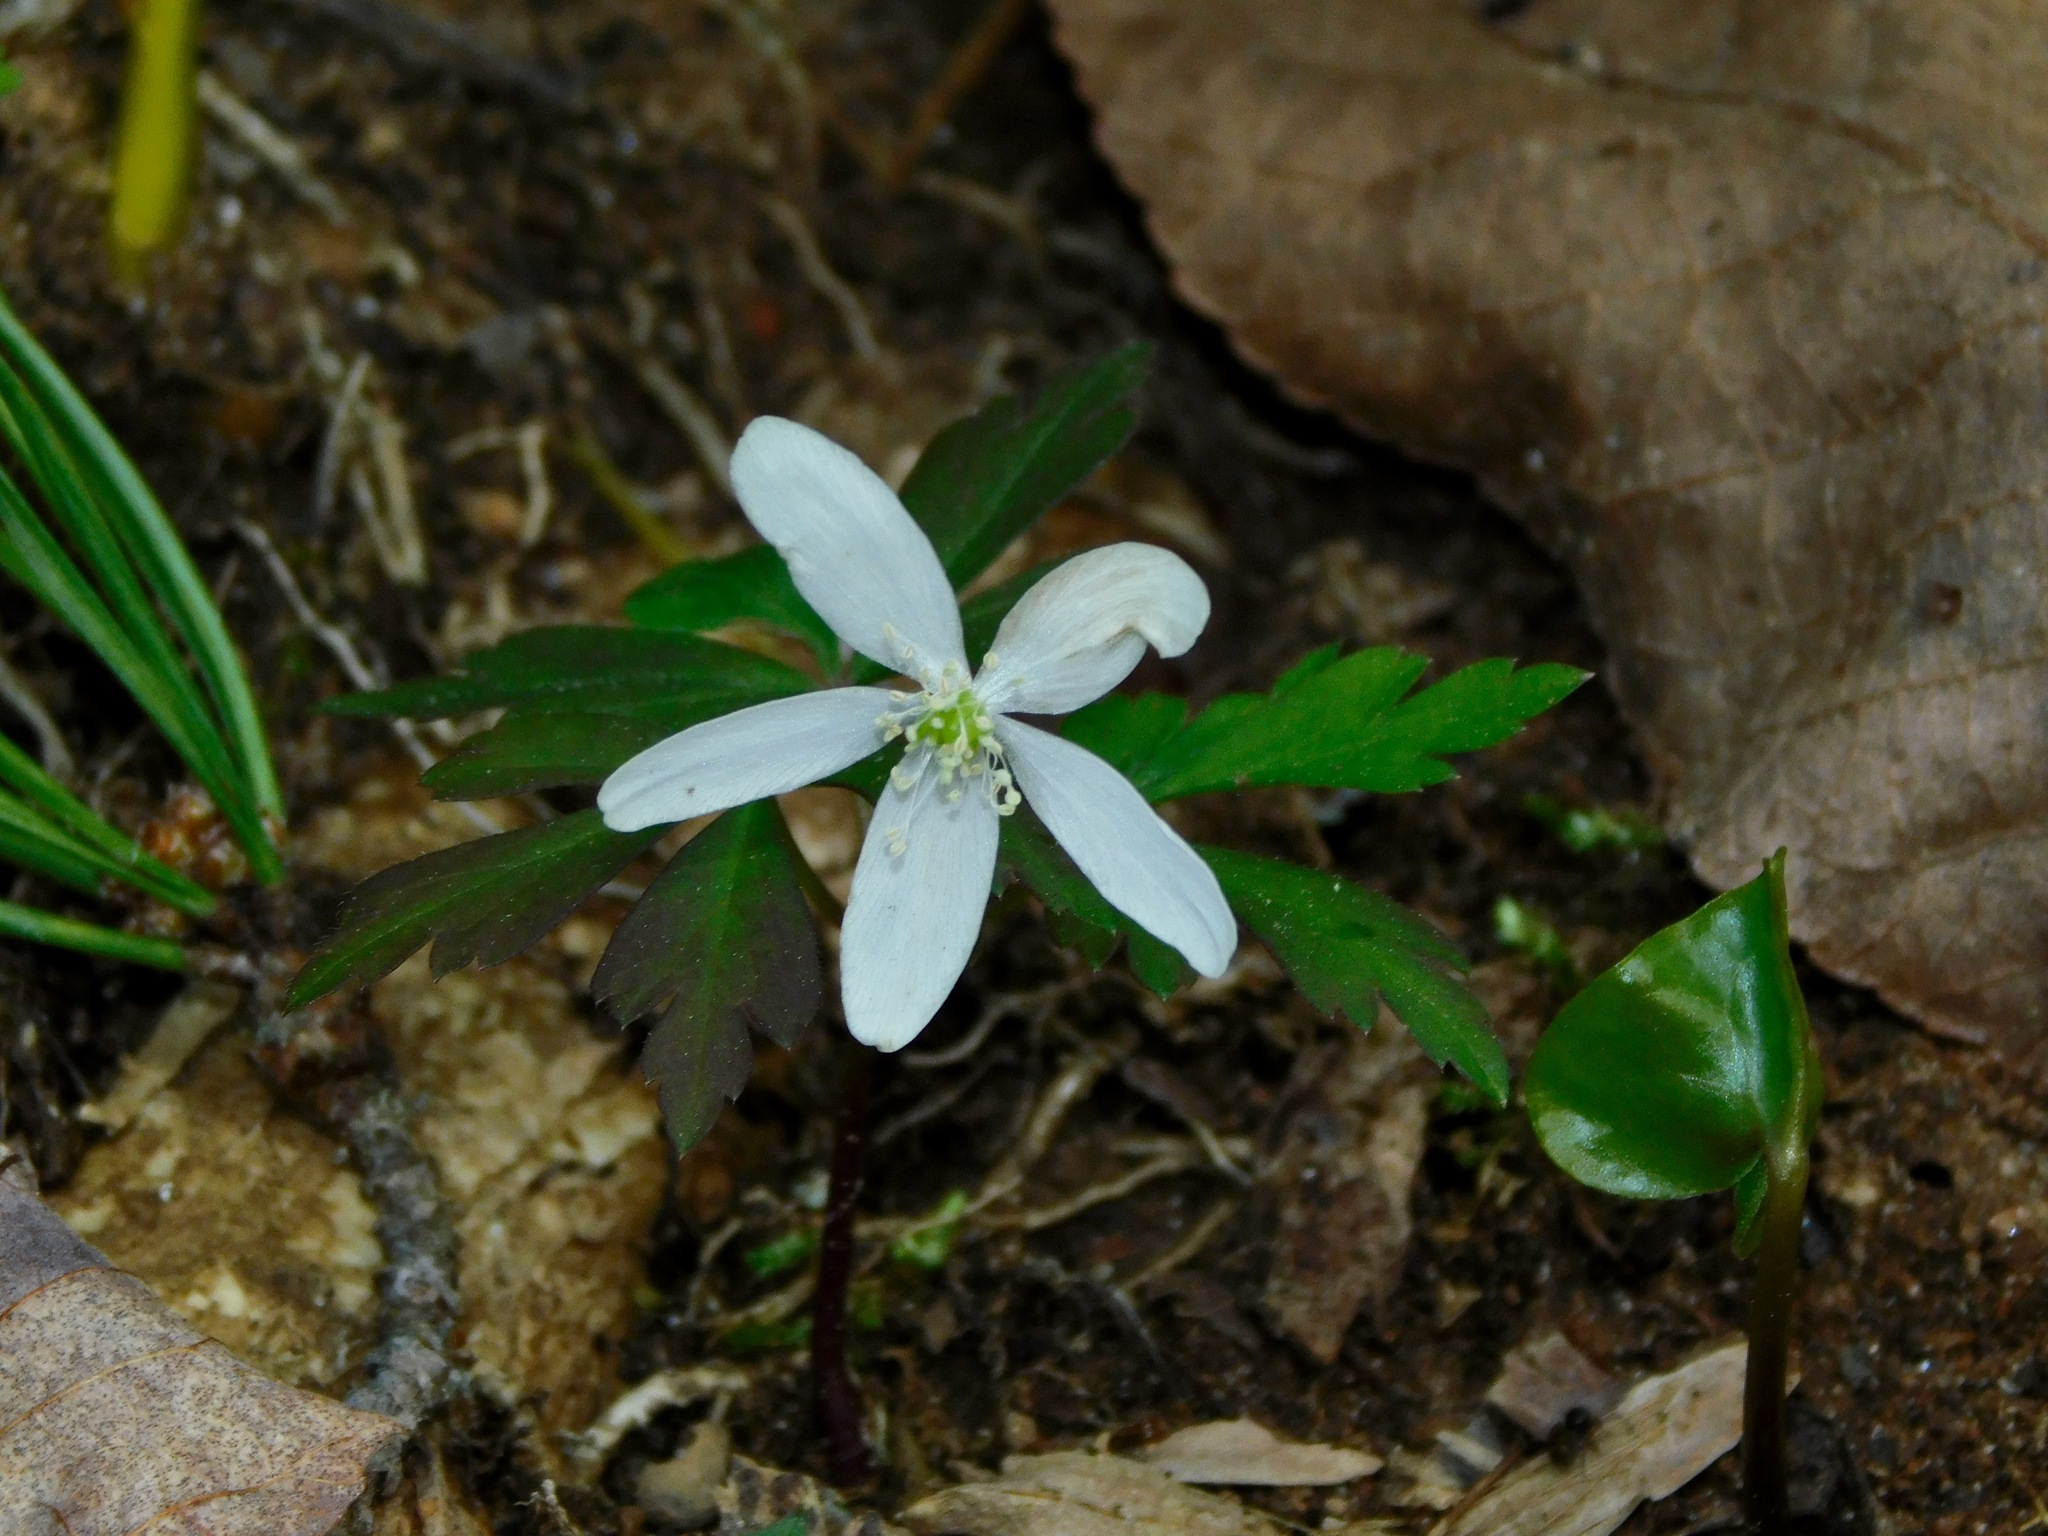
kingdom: Plantae
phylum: Tracheophyta
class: Magnoliopsida
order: Ranunculales
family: Ranunculaceae
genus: Anemone
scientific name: Anemone quinquefolia
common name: Wood anemone
